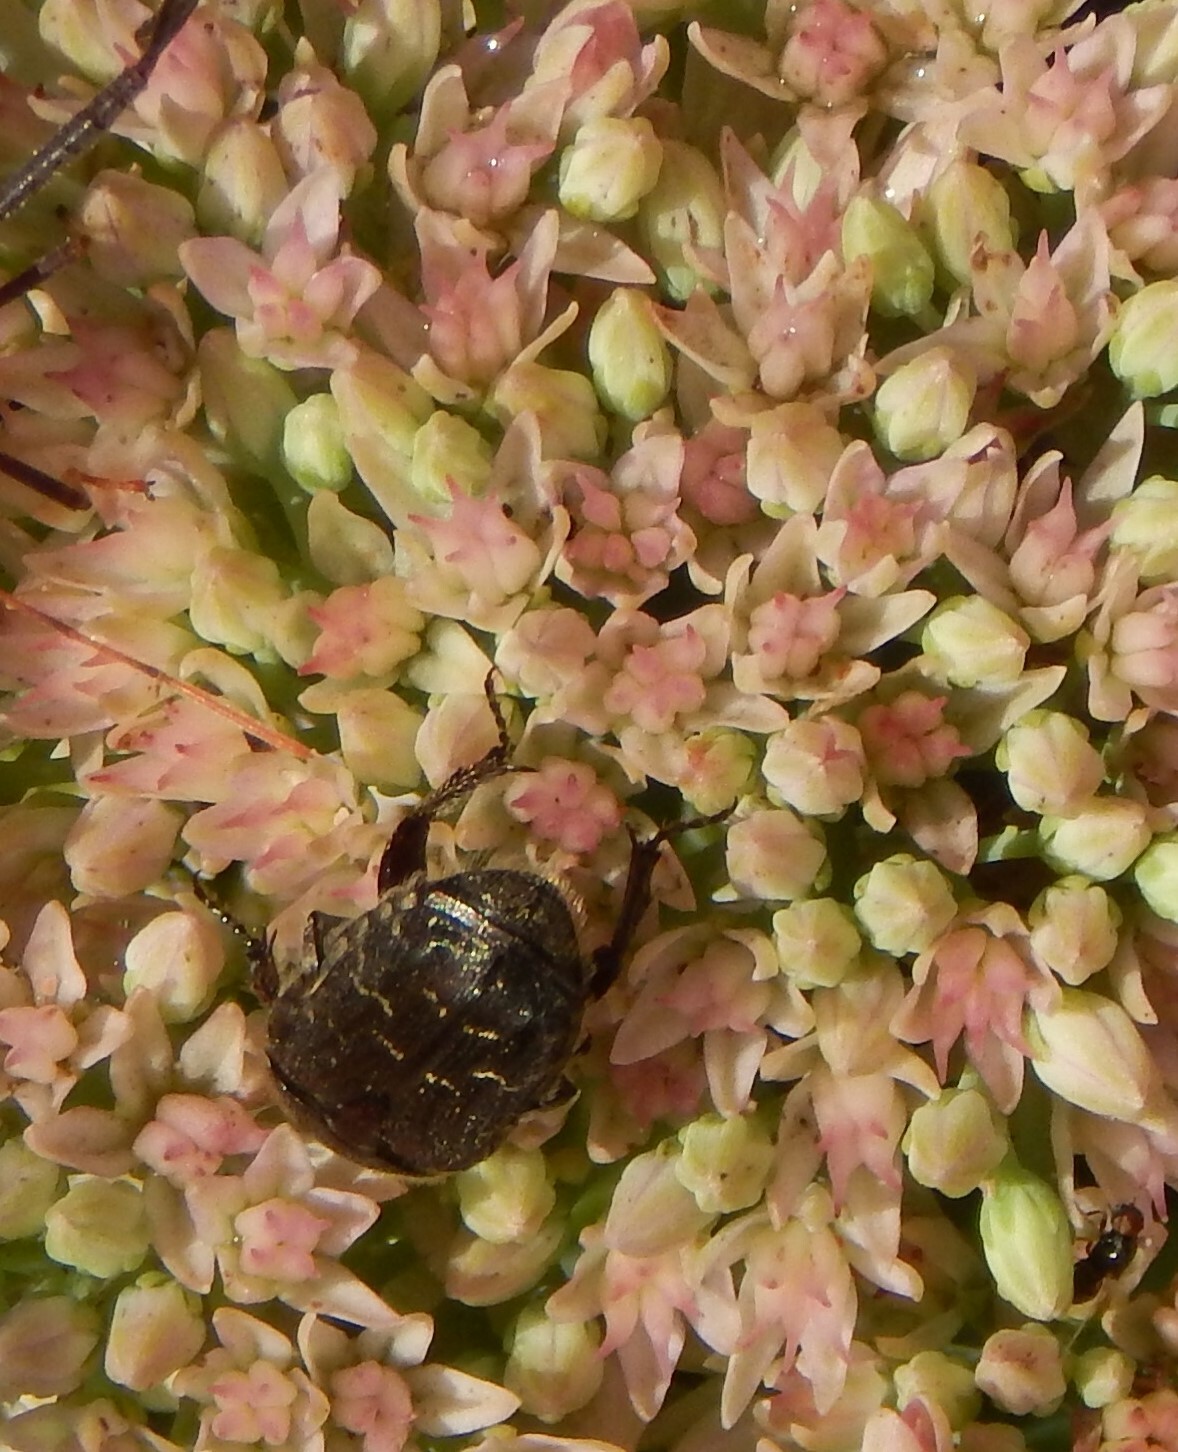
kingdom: Animalia
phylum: Arthropoda
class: Insecta
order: Coleoptera
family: Scarabaeidae
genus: Euphoria
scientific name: Euphoria sepulcralis
